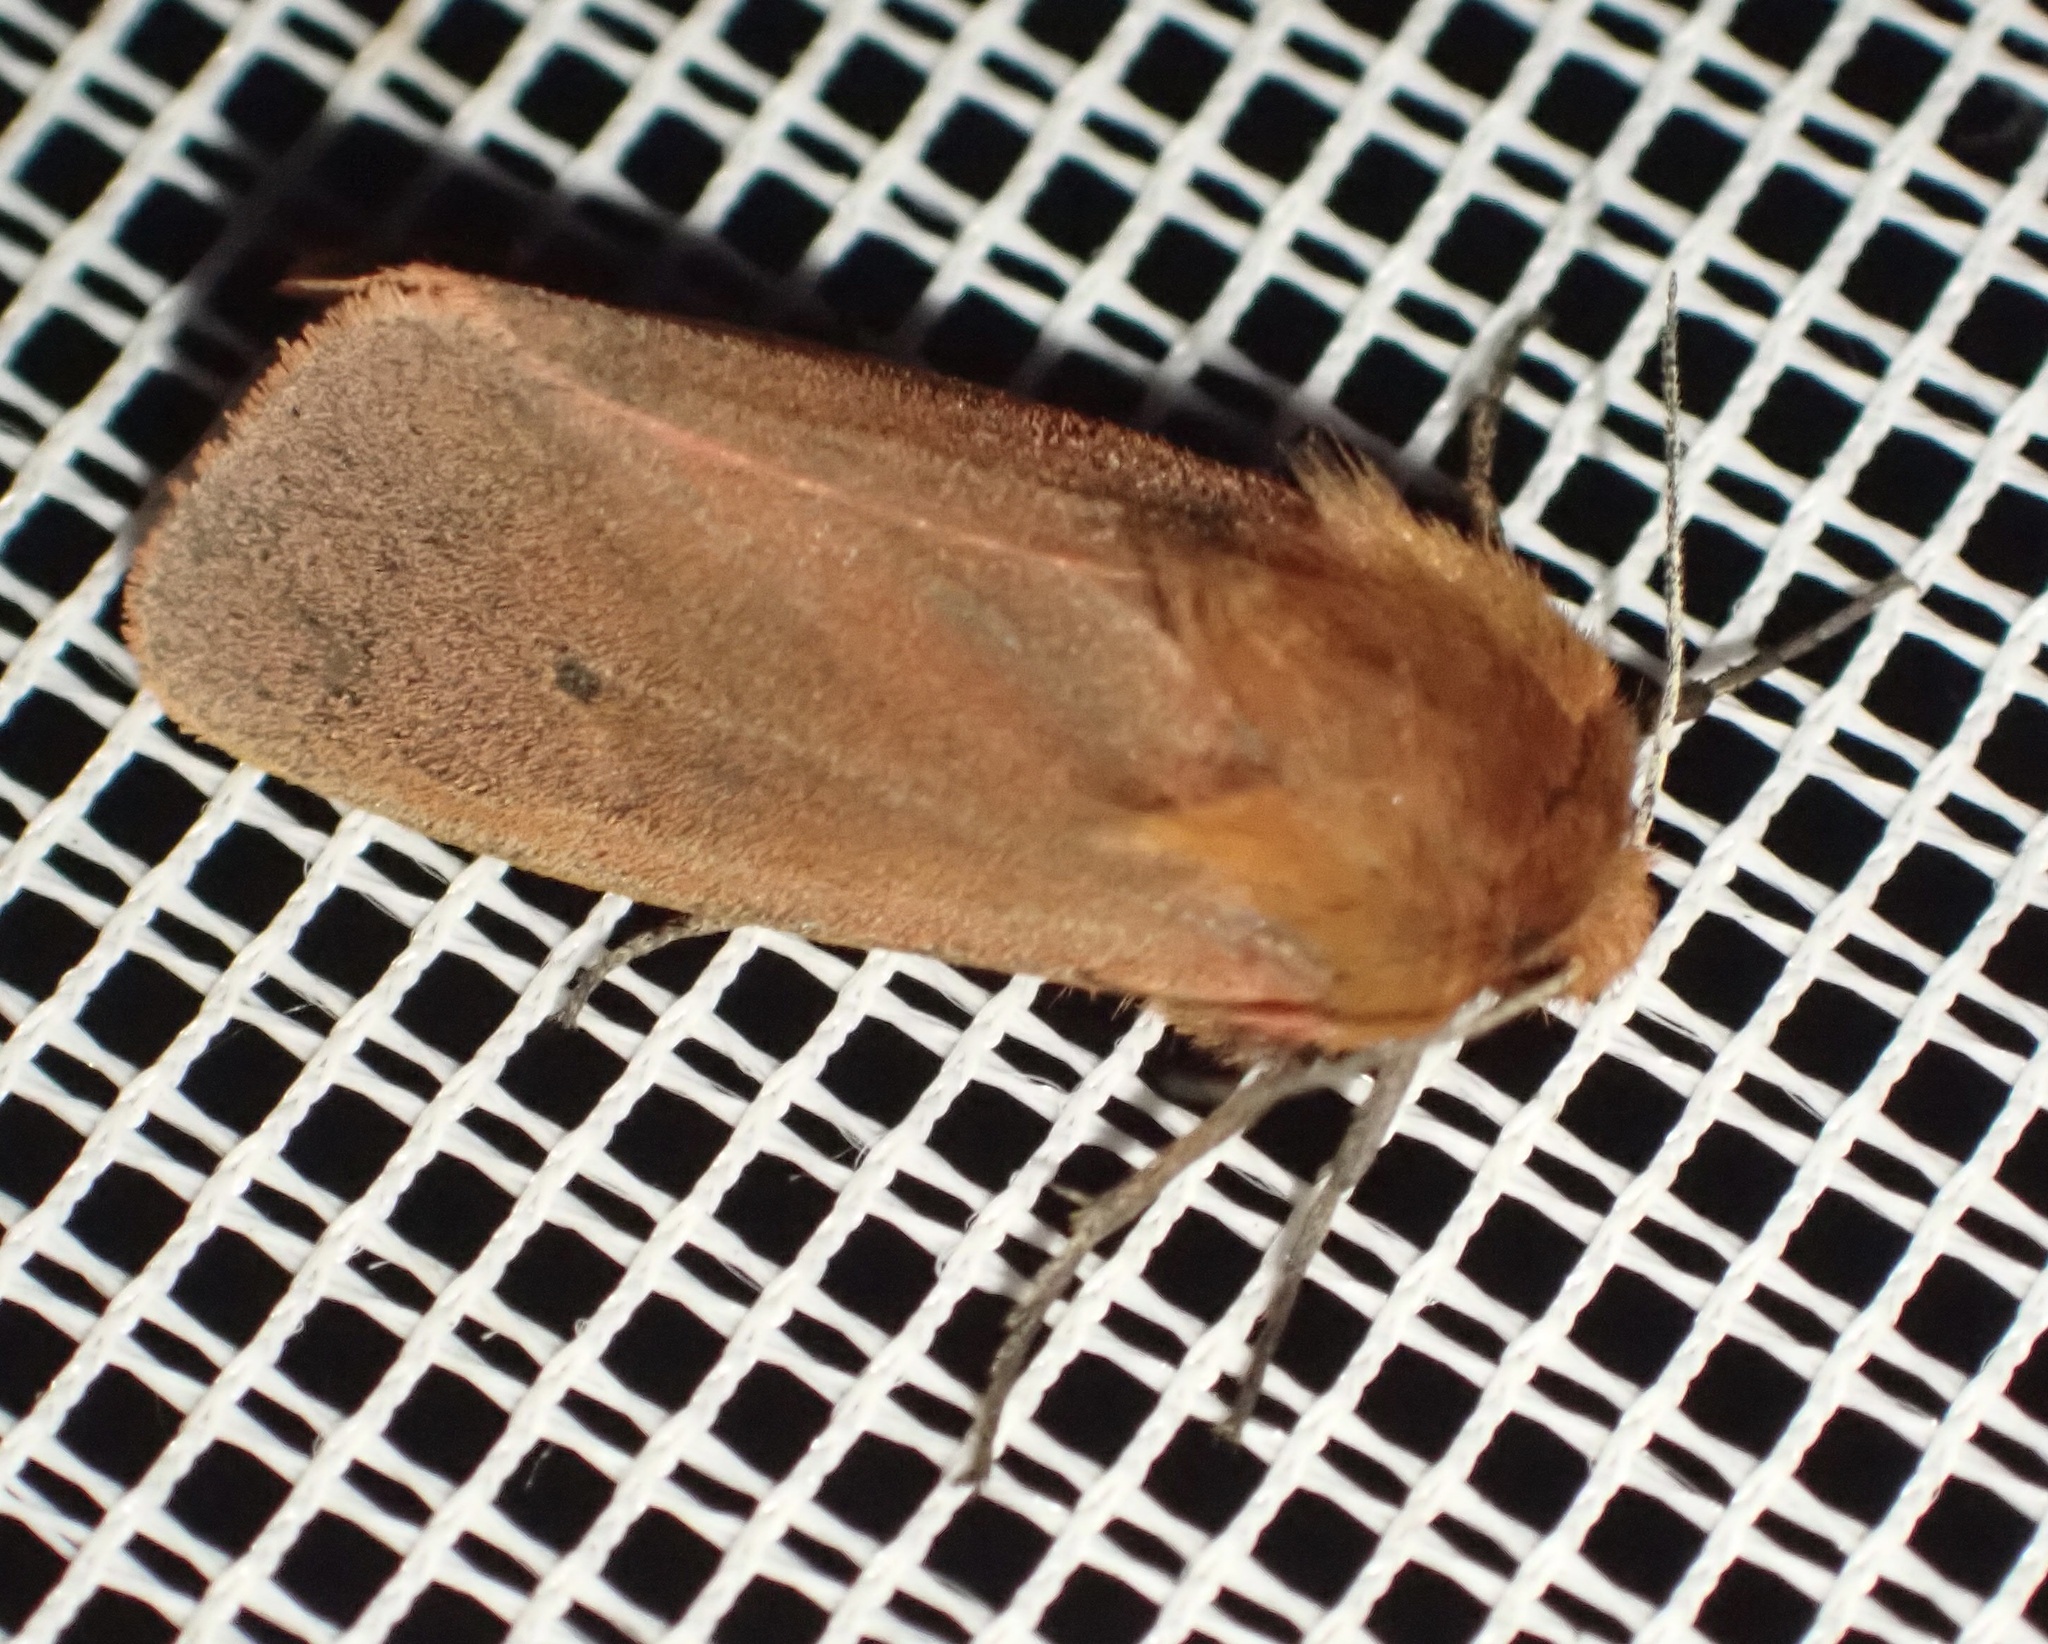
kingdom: Animalia
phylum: Arthropoda
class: Insecta
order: Lepidoptera
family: Erebidae
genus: Phragmatobia
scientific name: Phragmatobia fuliginosa
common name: Ruby tiger
